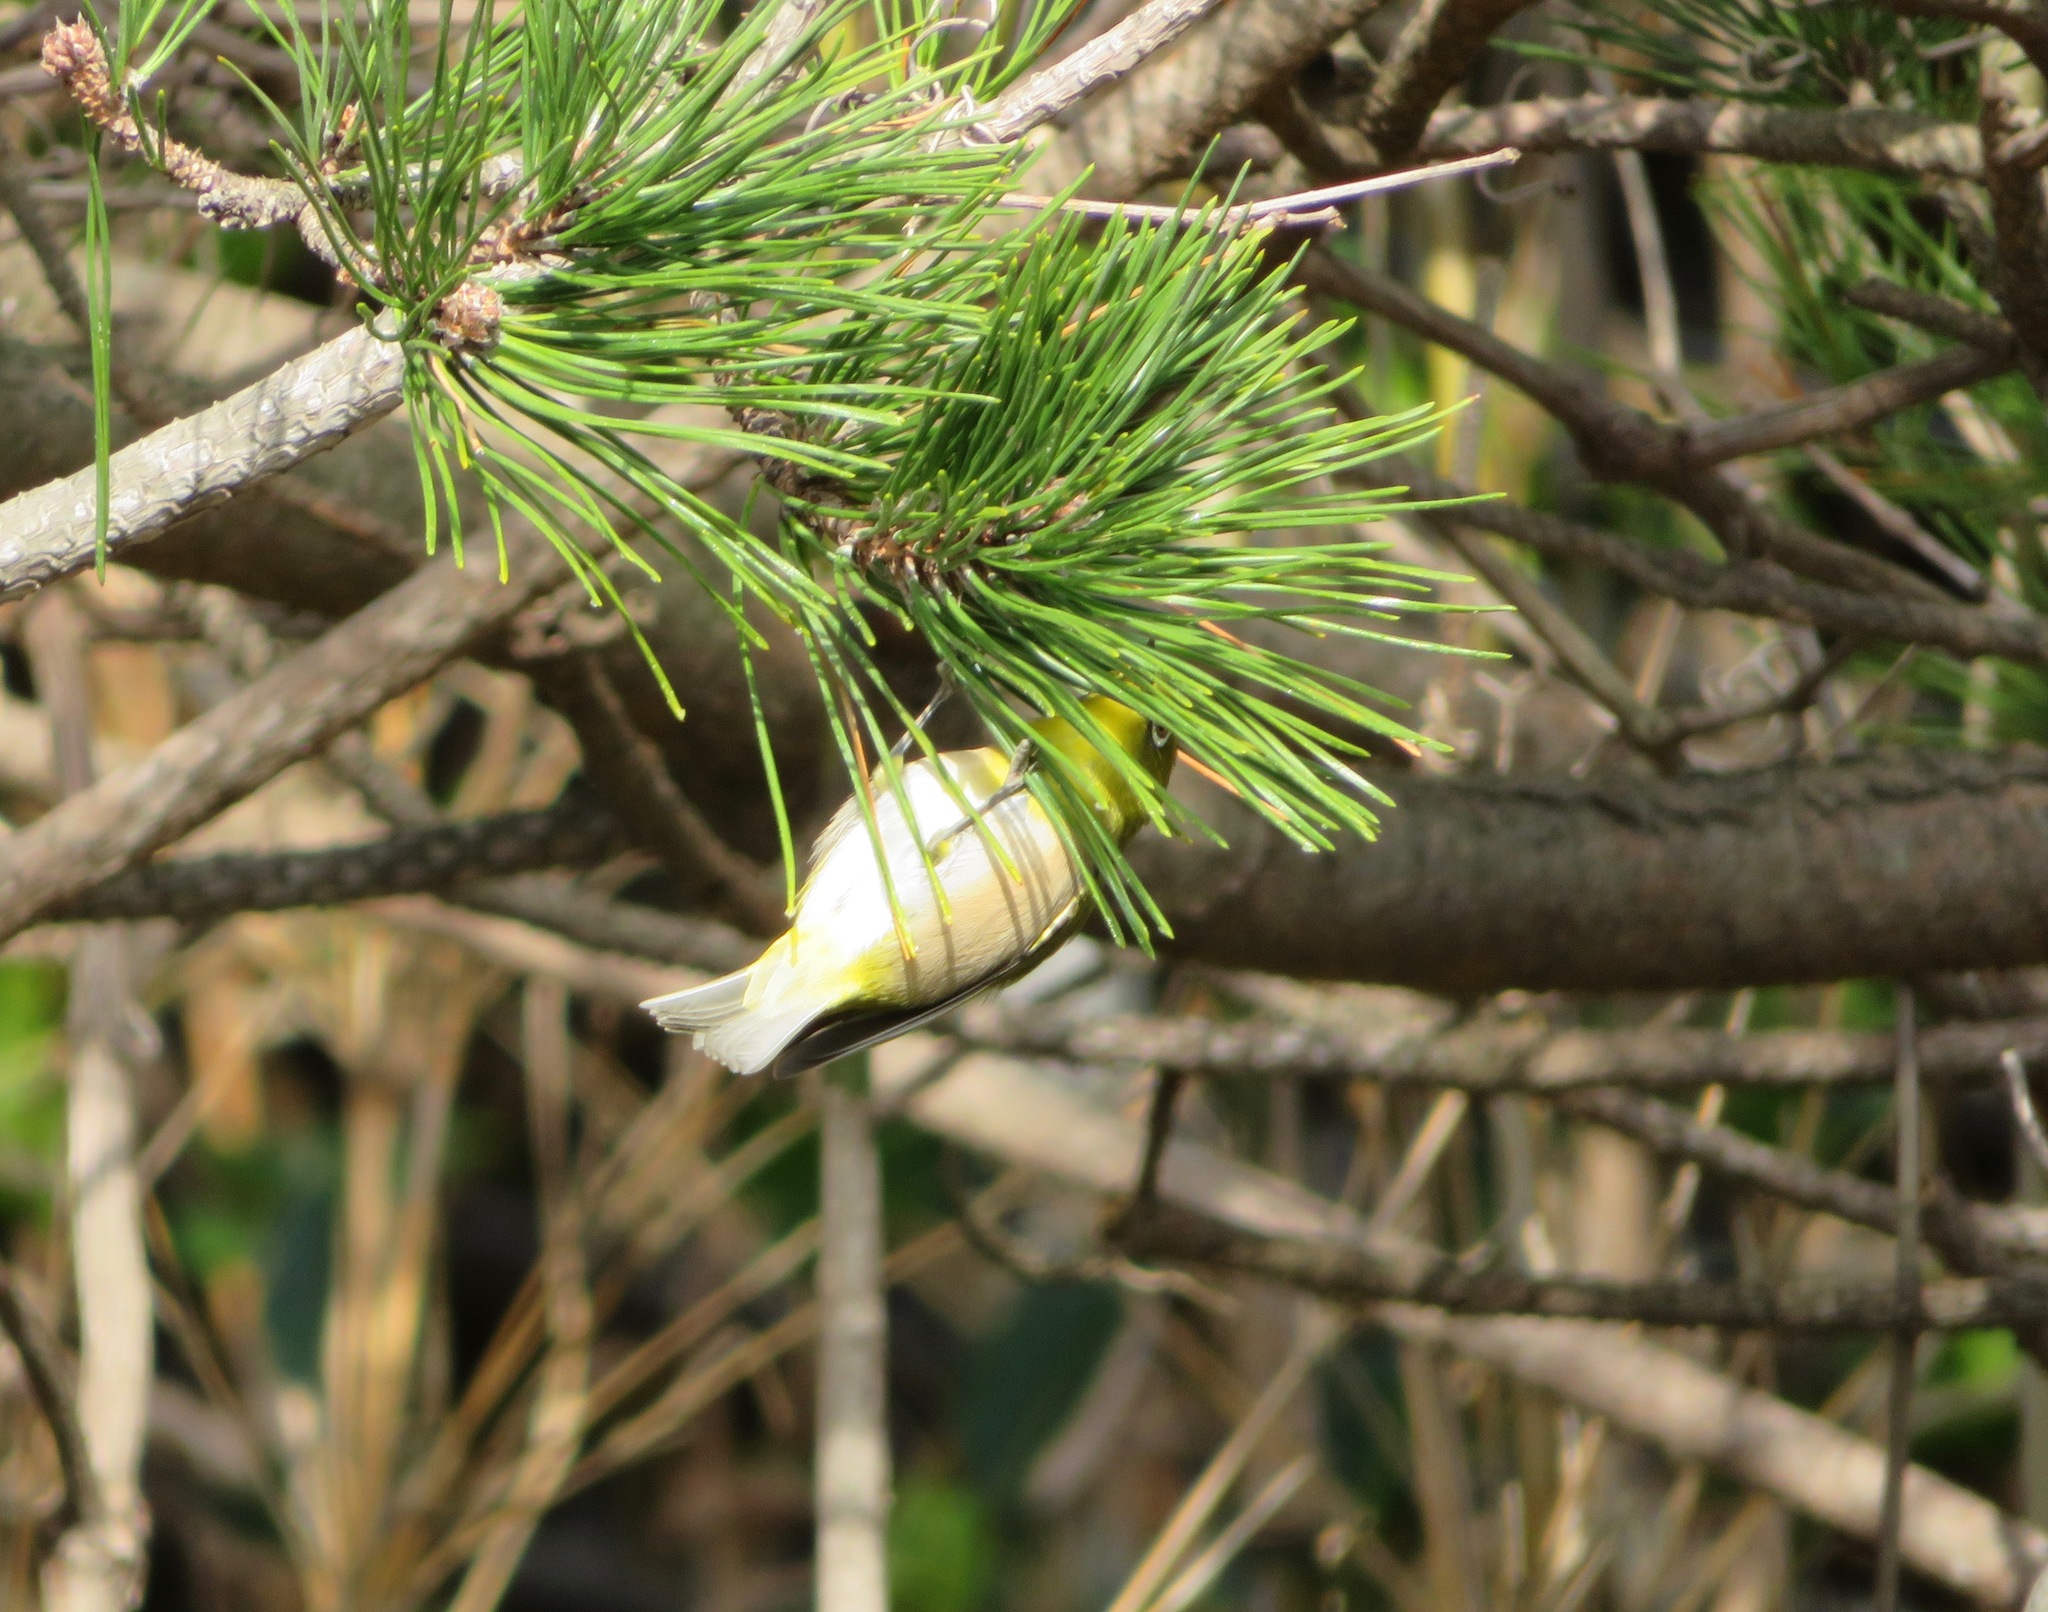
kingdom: Animalia
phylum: Chordata
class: Aves
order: Passeriformes
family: Zosteropidae
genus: Zosterops
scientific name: Zosterops japonicus
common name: Japanese white-eye
